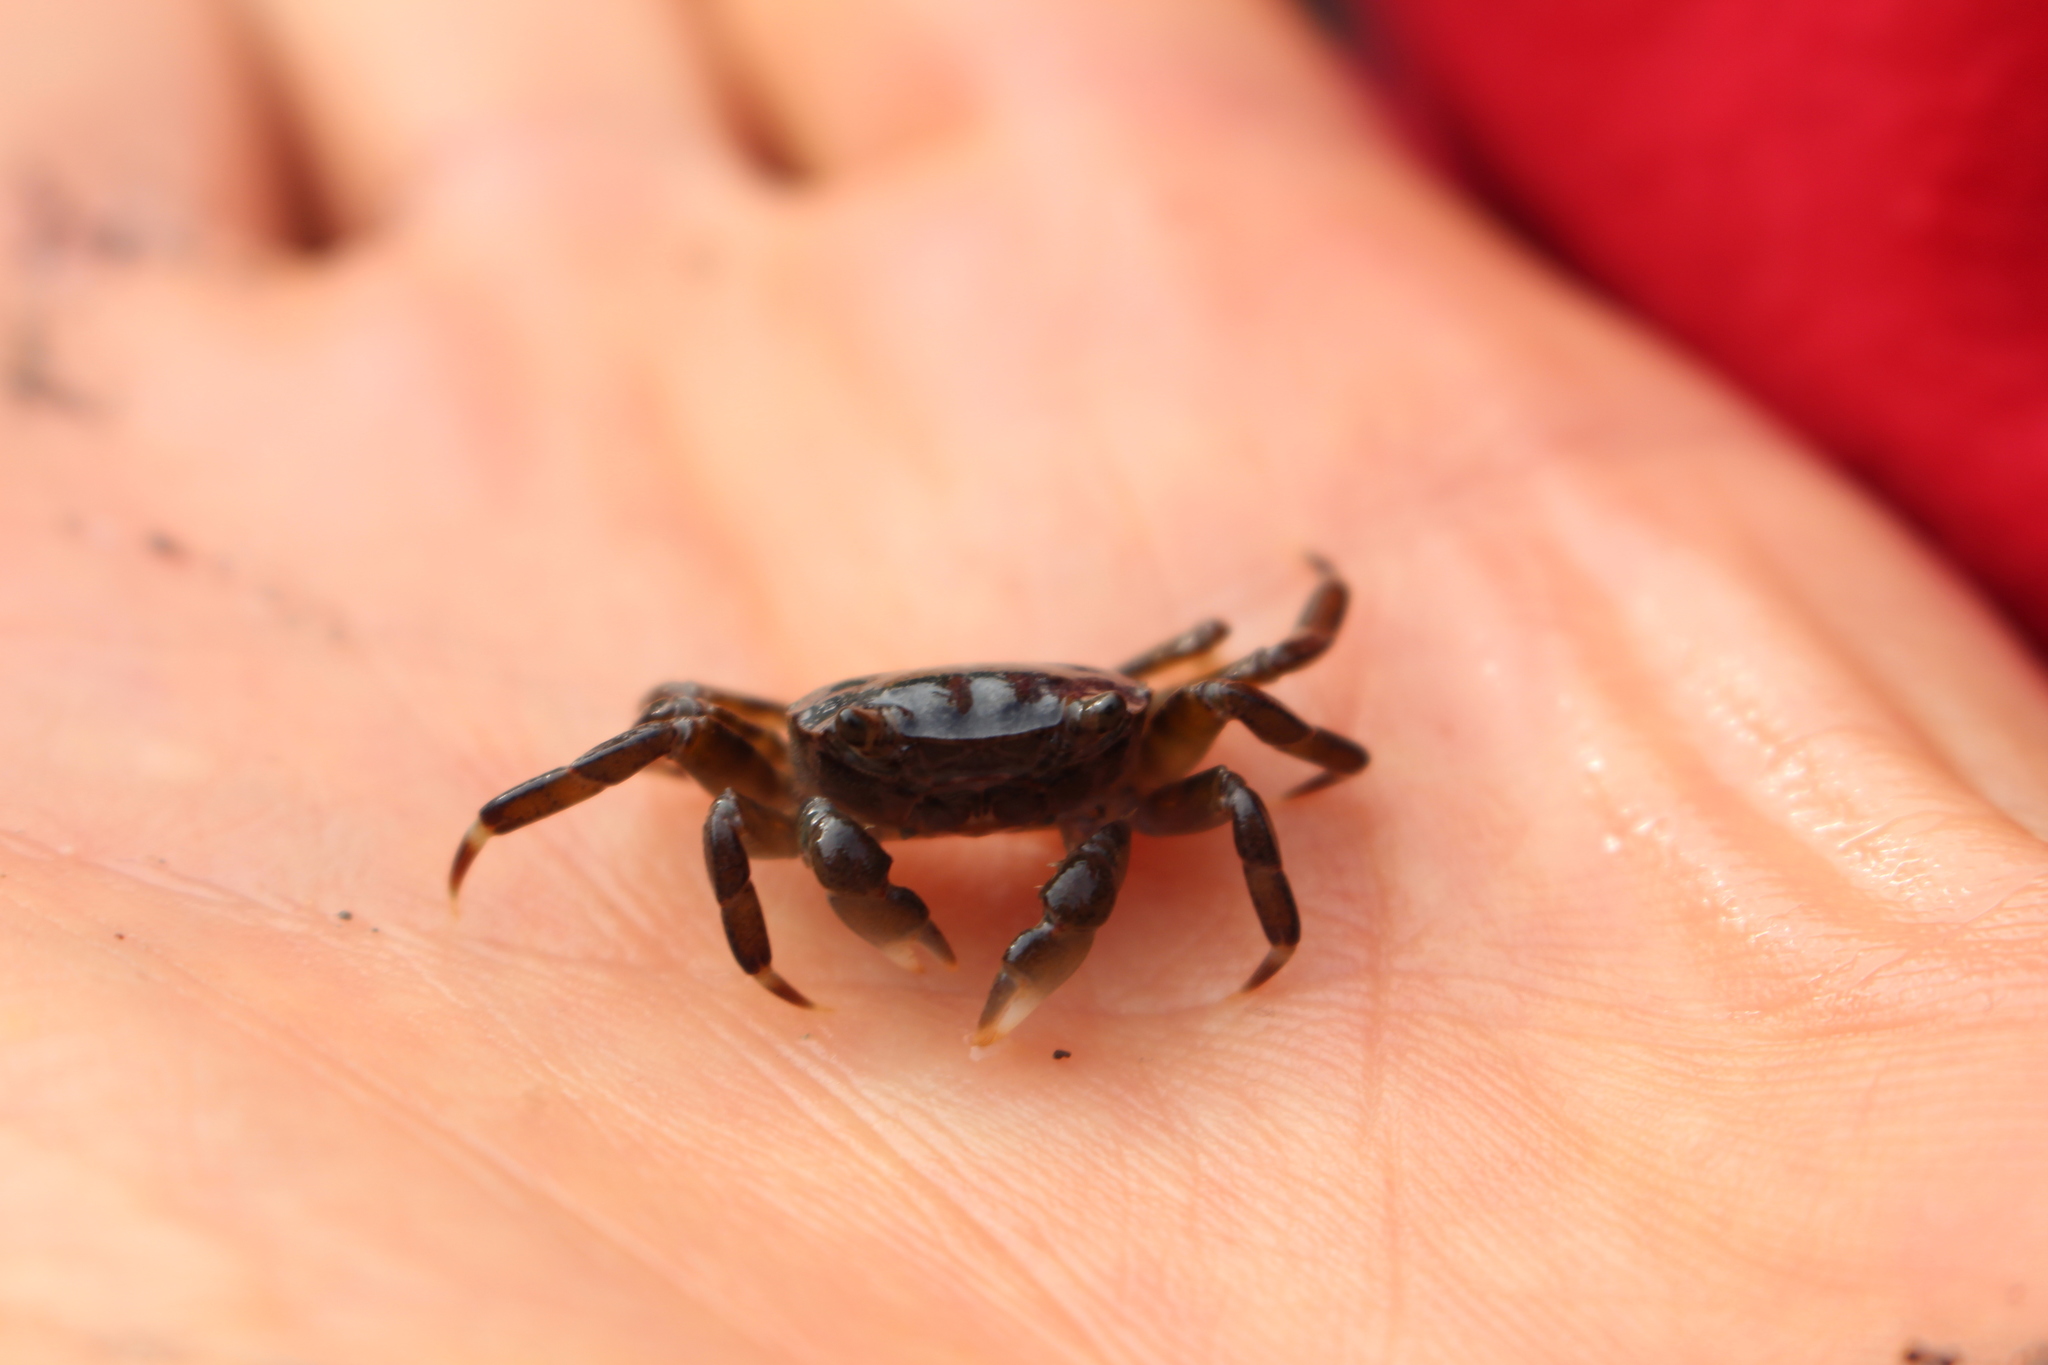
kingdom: Animalia
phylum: Arthropoda
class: Malacostraca
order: Decapoda
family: Varunidae
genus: Cyclograpsus
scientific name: Cyclograpsus lavauxi
